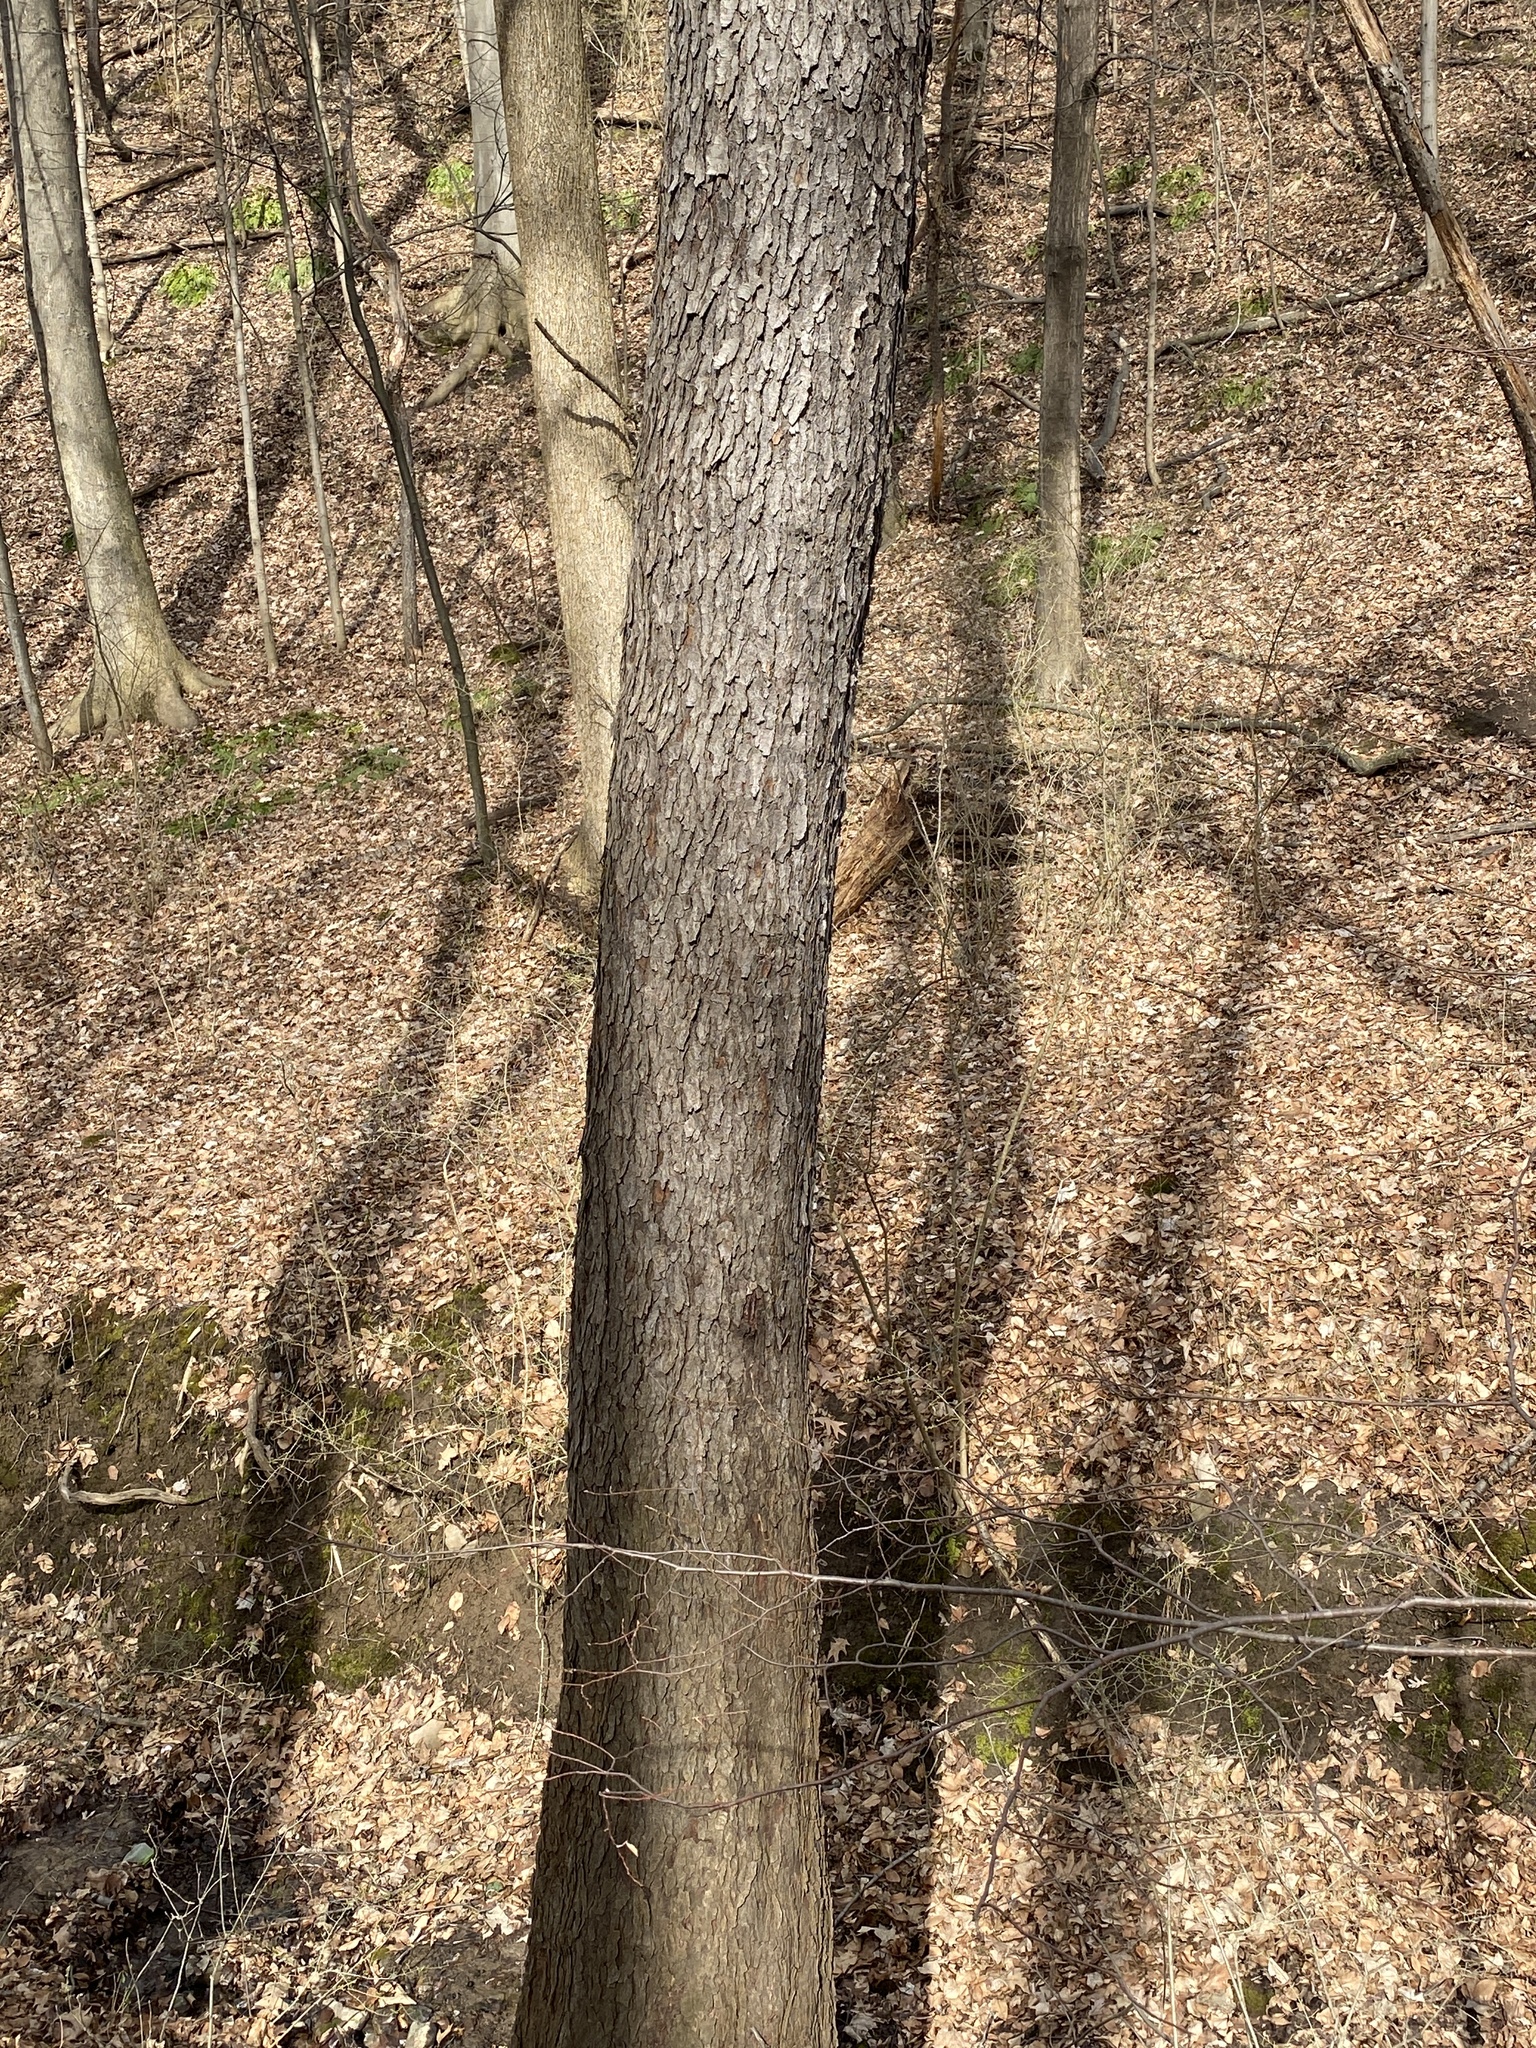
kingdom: Plantae
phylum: Tracheophyta
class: Magnoliopsida
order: Rosales
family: Rosaceae
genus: Prunus
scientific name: Prunus serotina
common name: Black cherry
